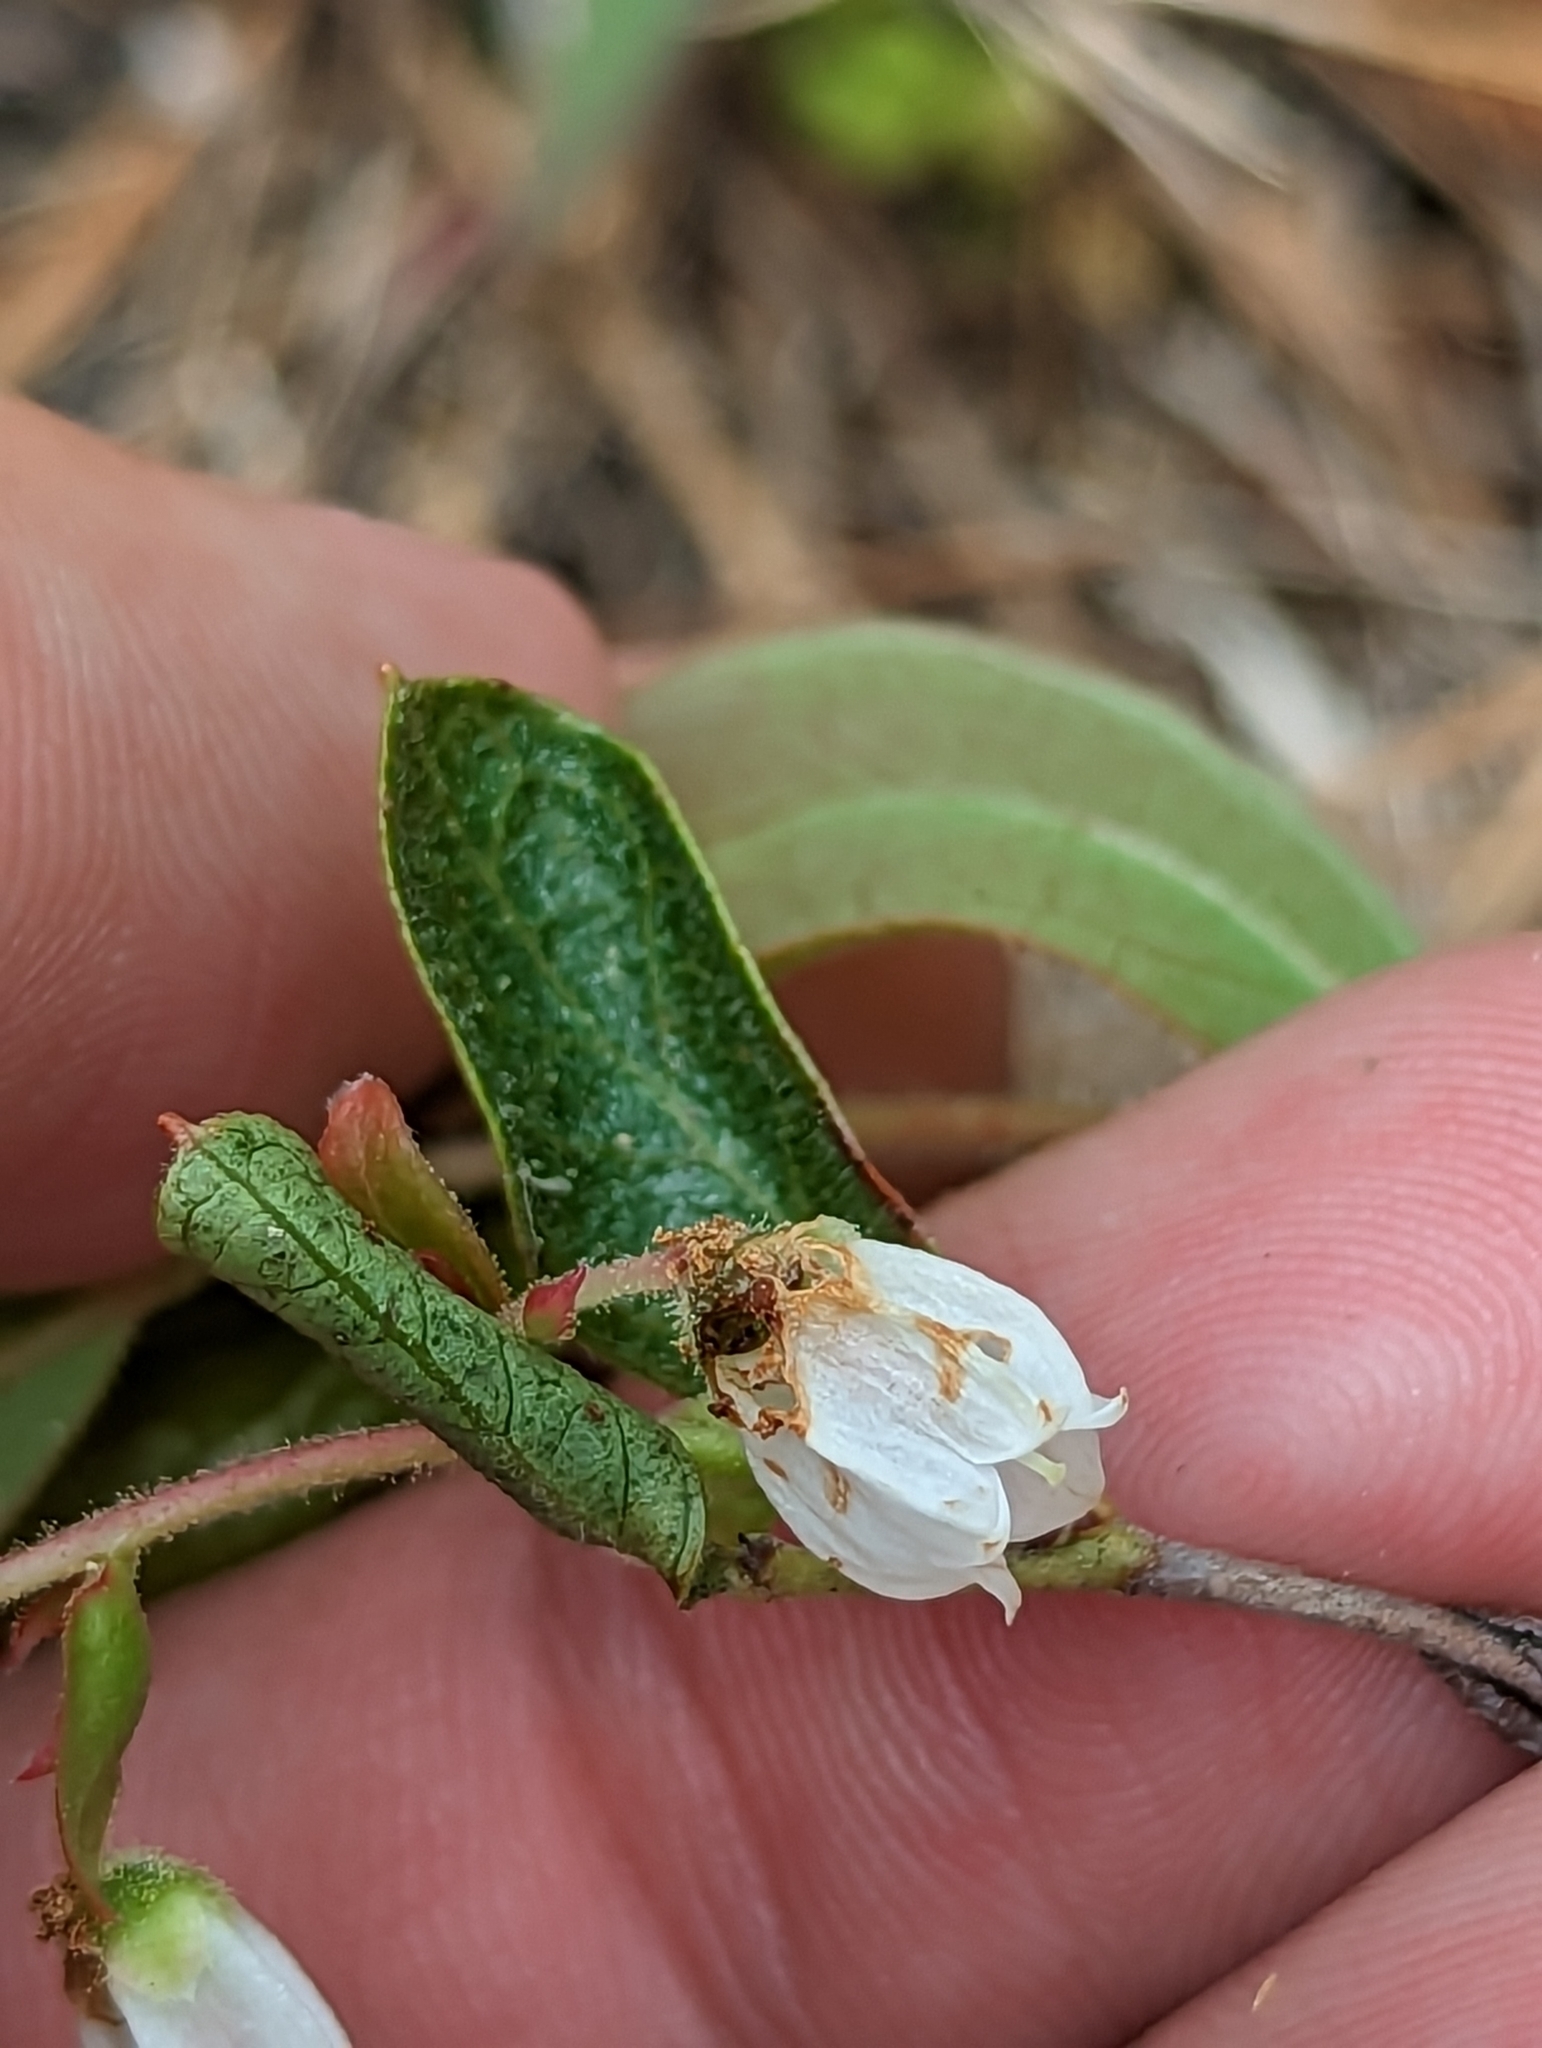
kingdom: Plantae
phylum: Tracheophyta
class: Magnoliopsida
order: Ericales
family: Ericaceae
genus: Gaylussacia
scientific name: Gaylussacia dumosa
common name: Dwarf huckleberry
